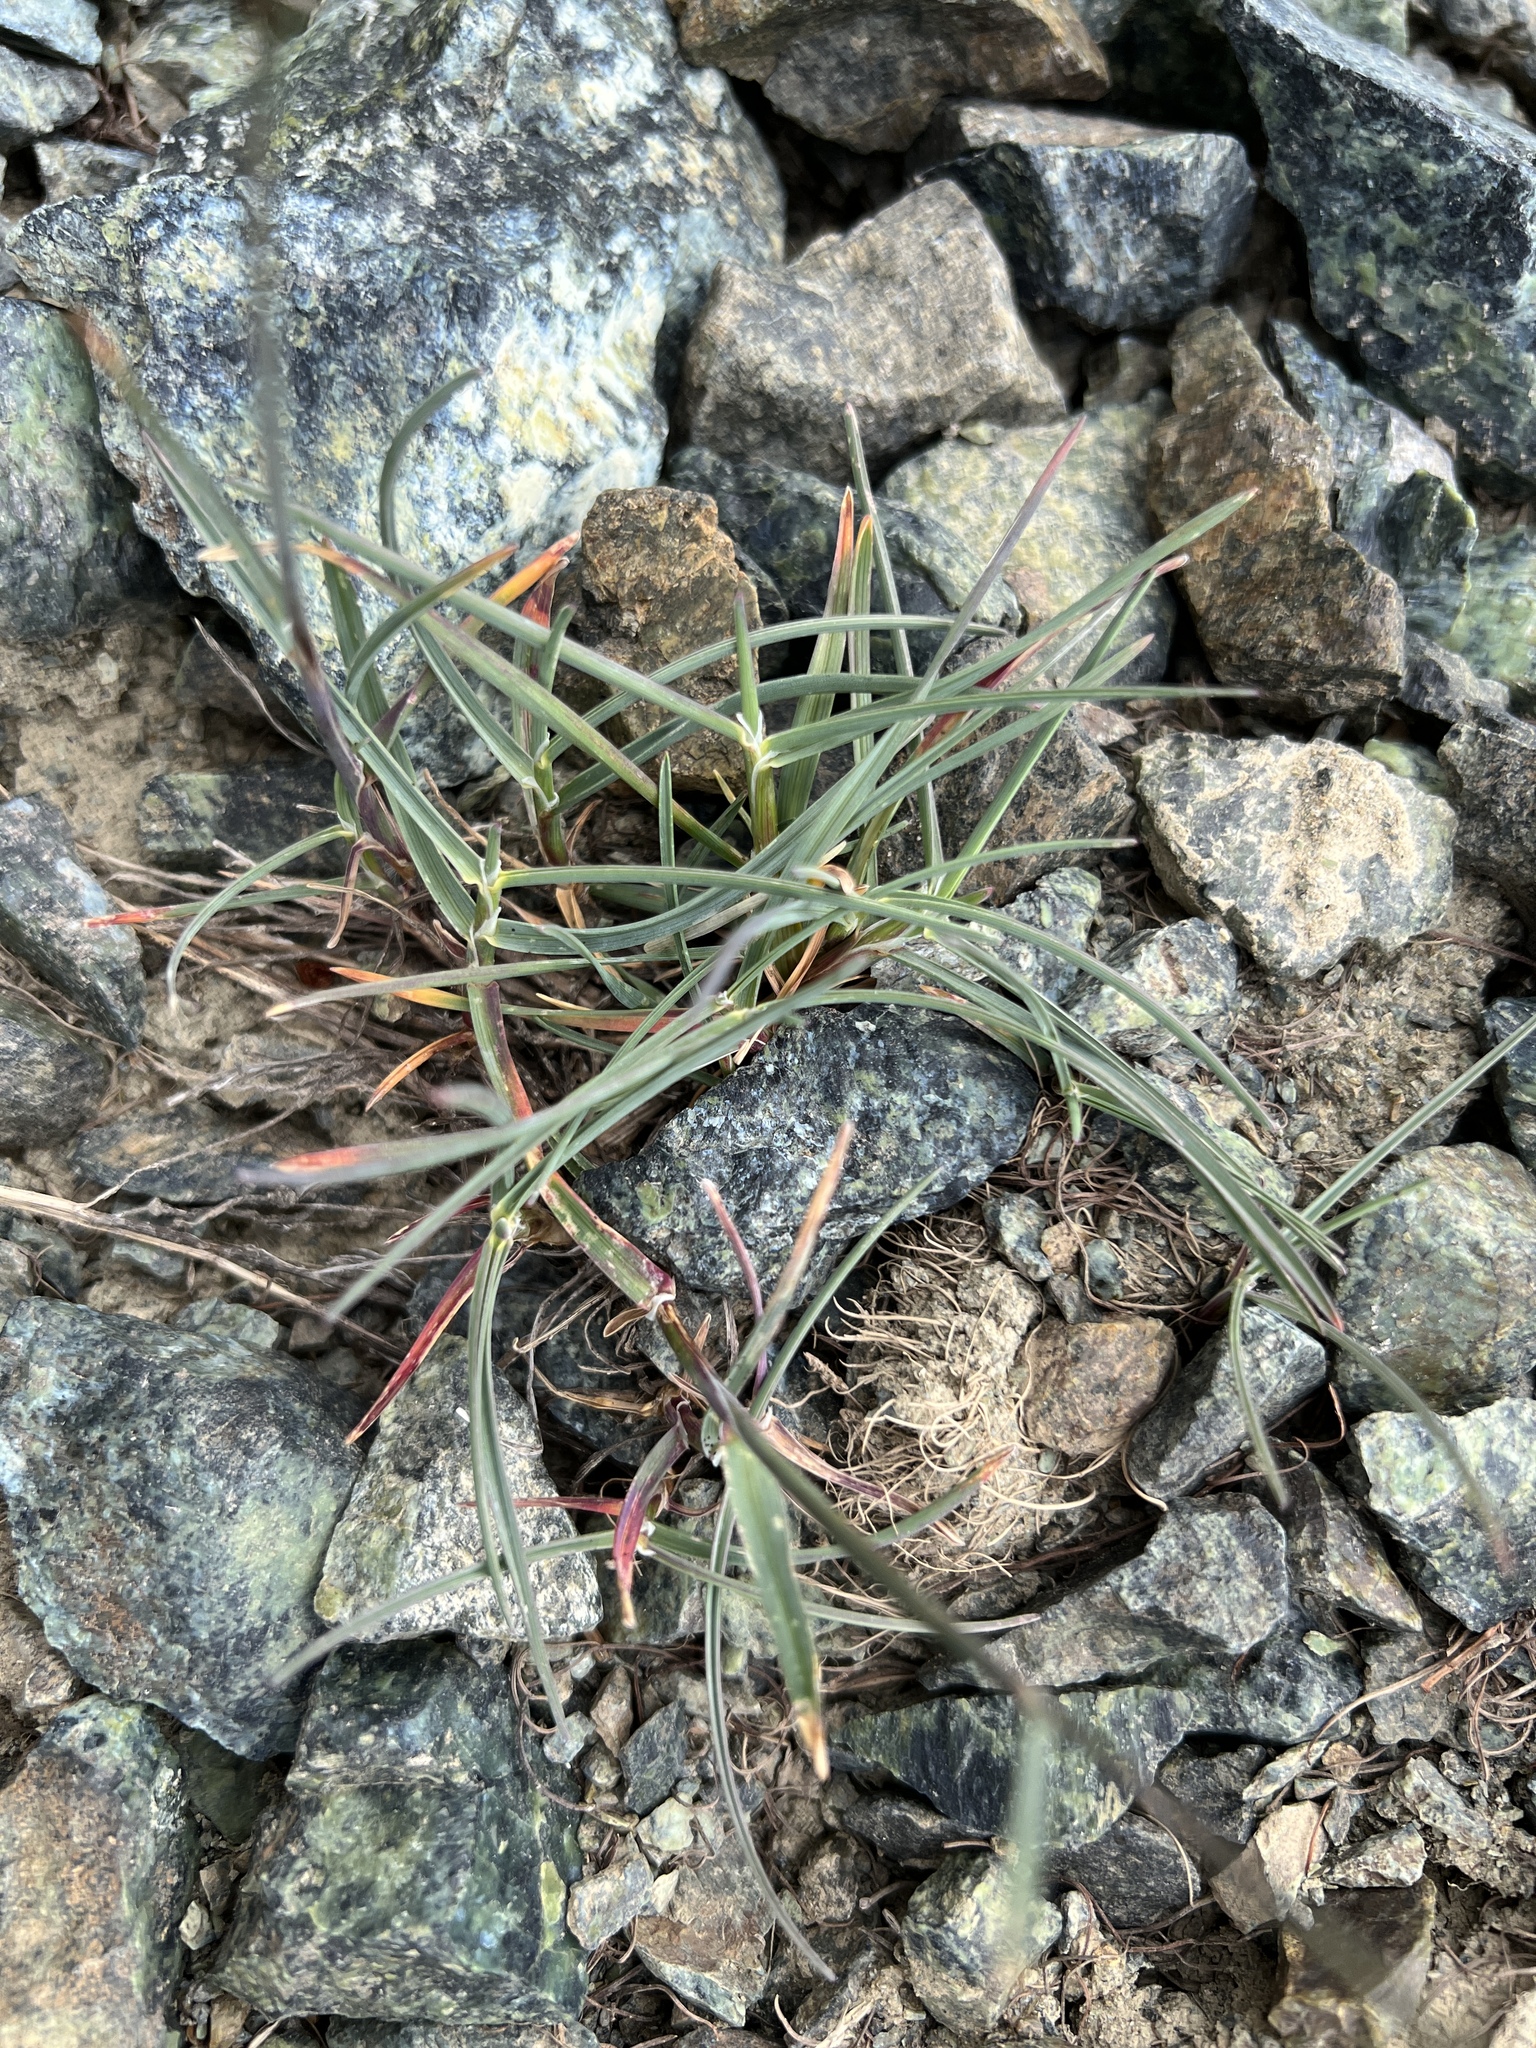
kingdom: Plantae
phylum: Tracheophyta
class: Liliopsida
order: Poales
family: Poaceae
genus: Poa
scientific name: Poa curtifolia
